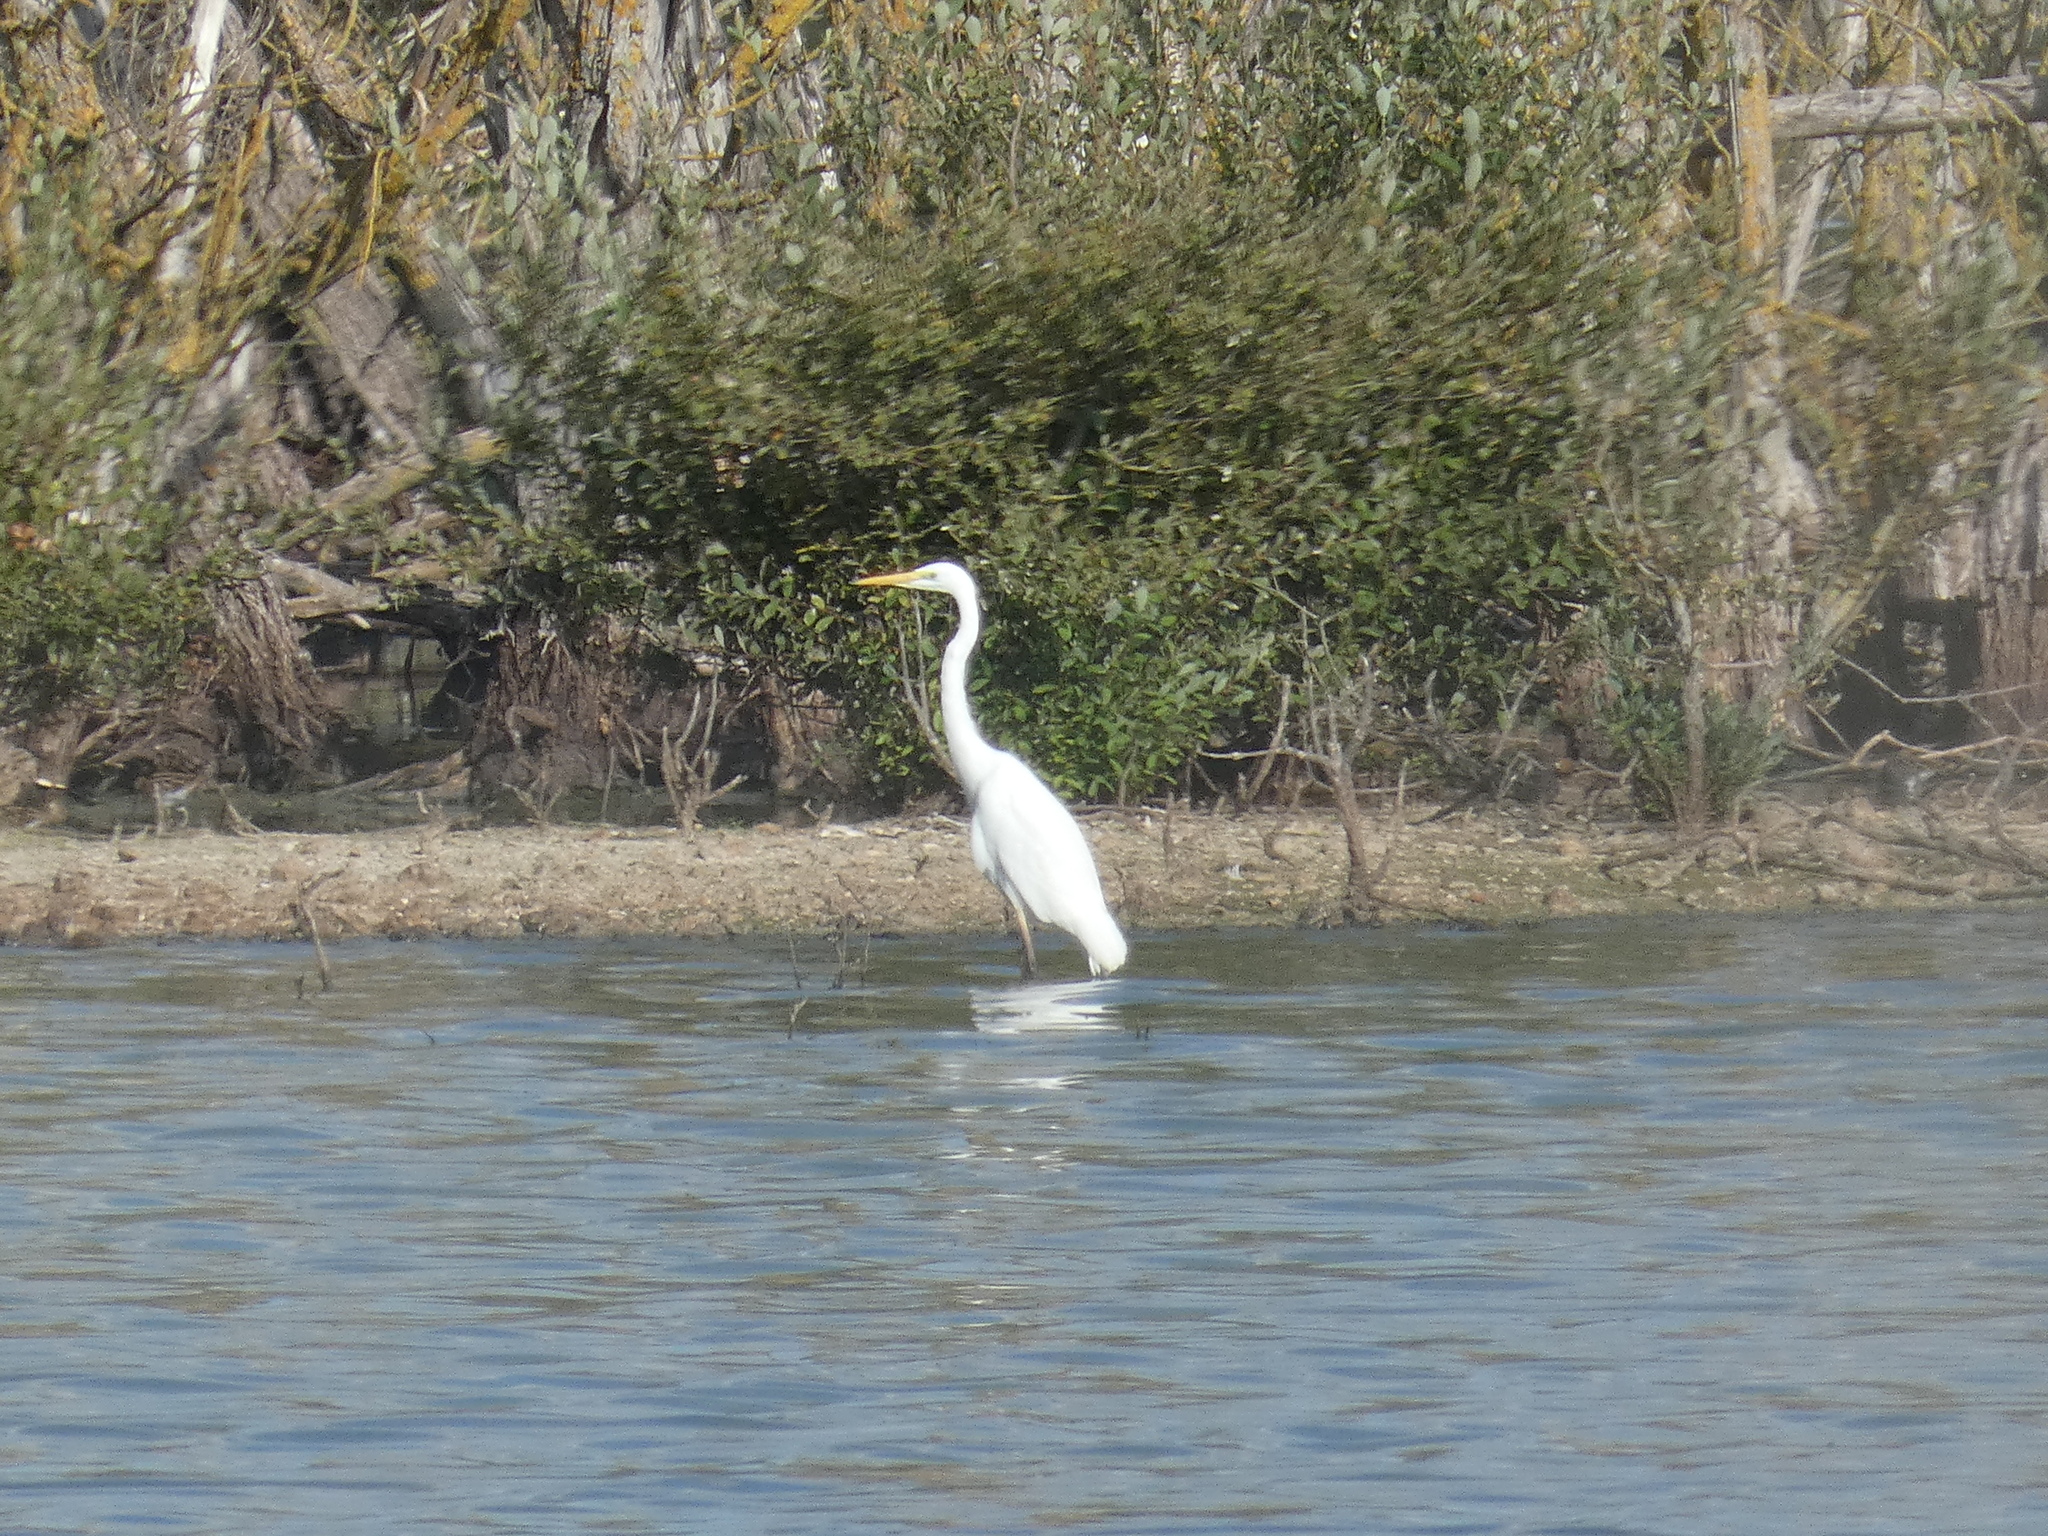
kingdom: Animalia
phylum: Chordata
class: Aves
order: Pelecaniformes
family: Ardeidae
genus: Ardea
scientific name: Ardea alba
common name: Great egret
